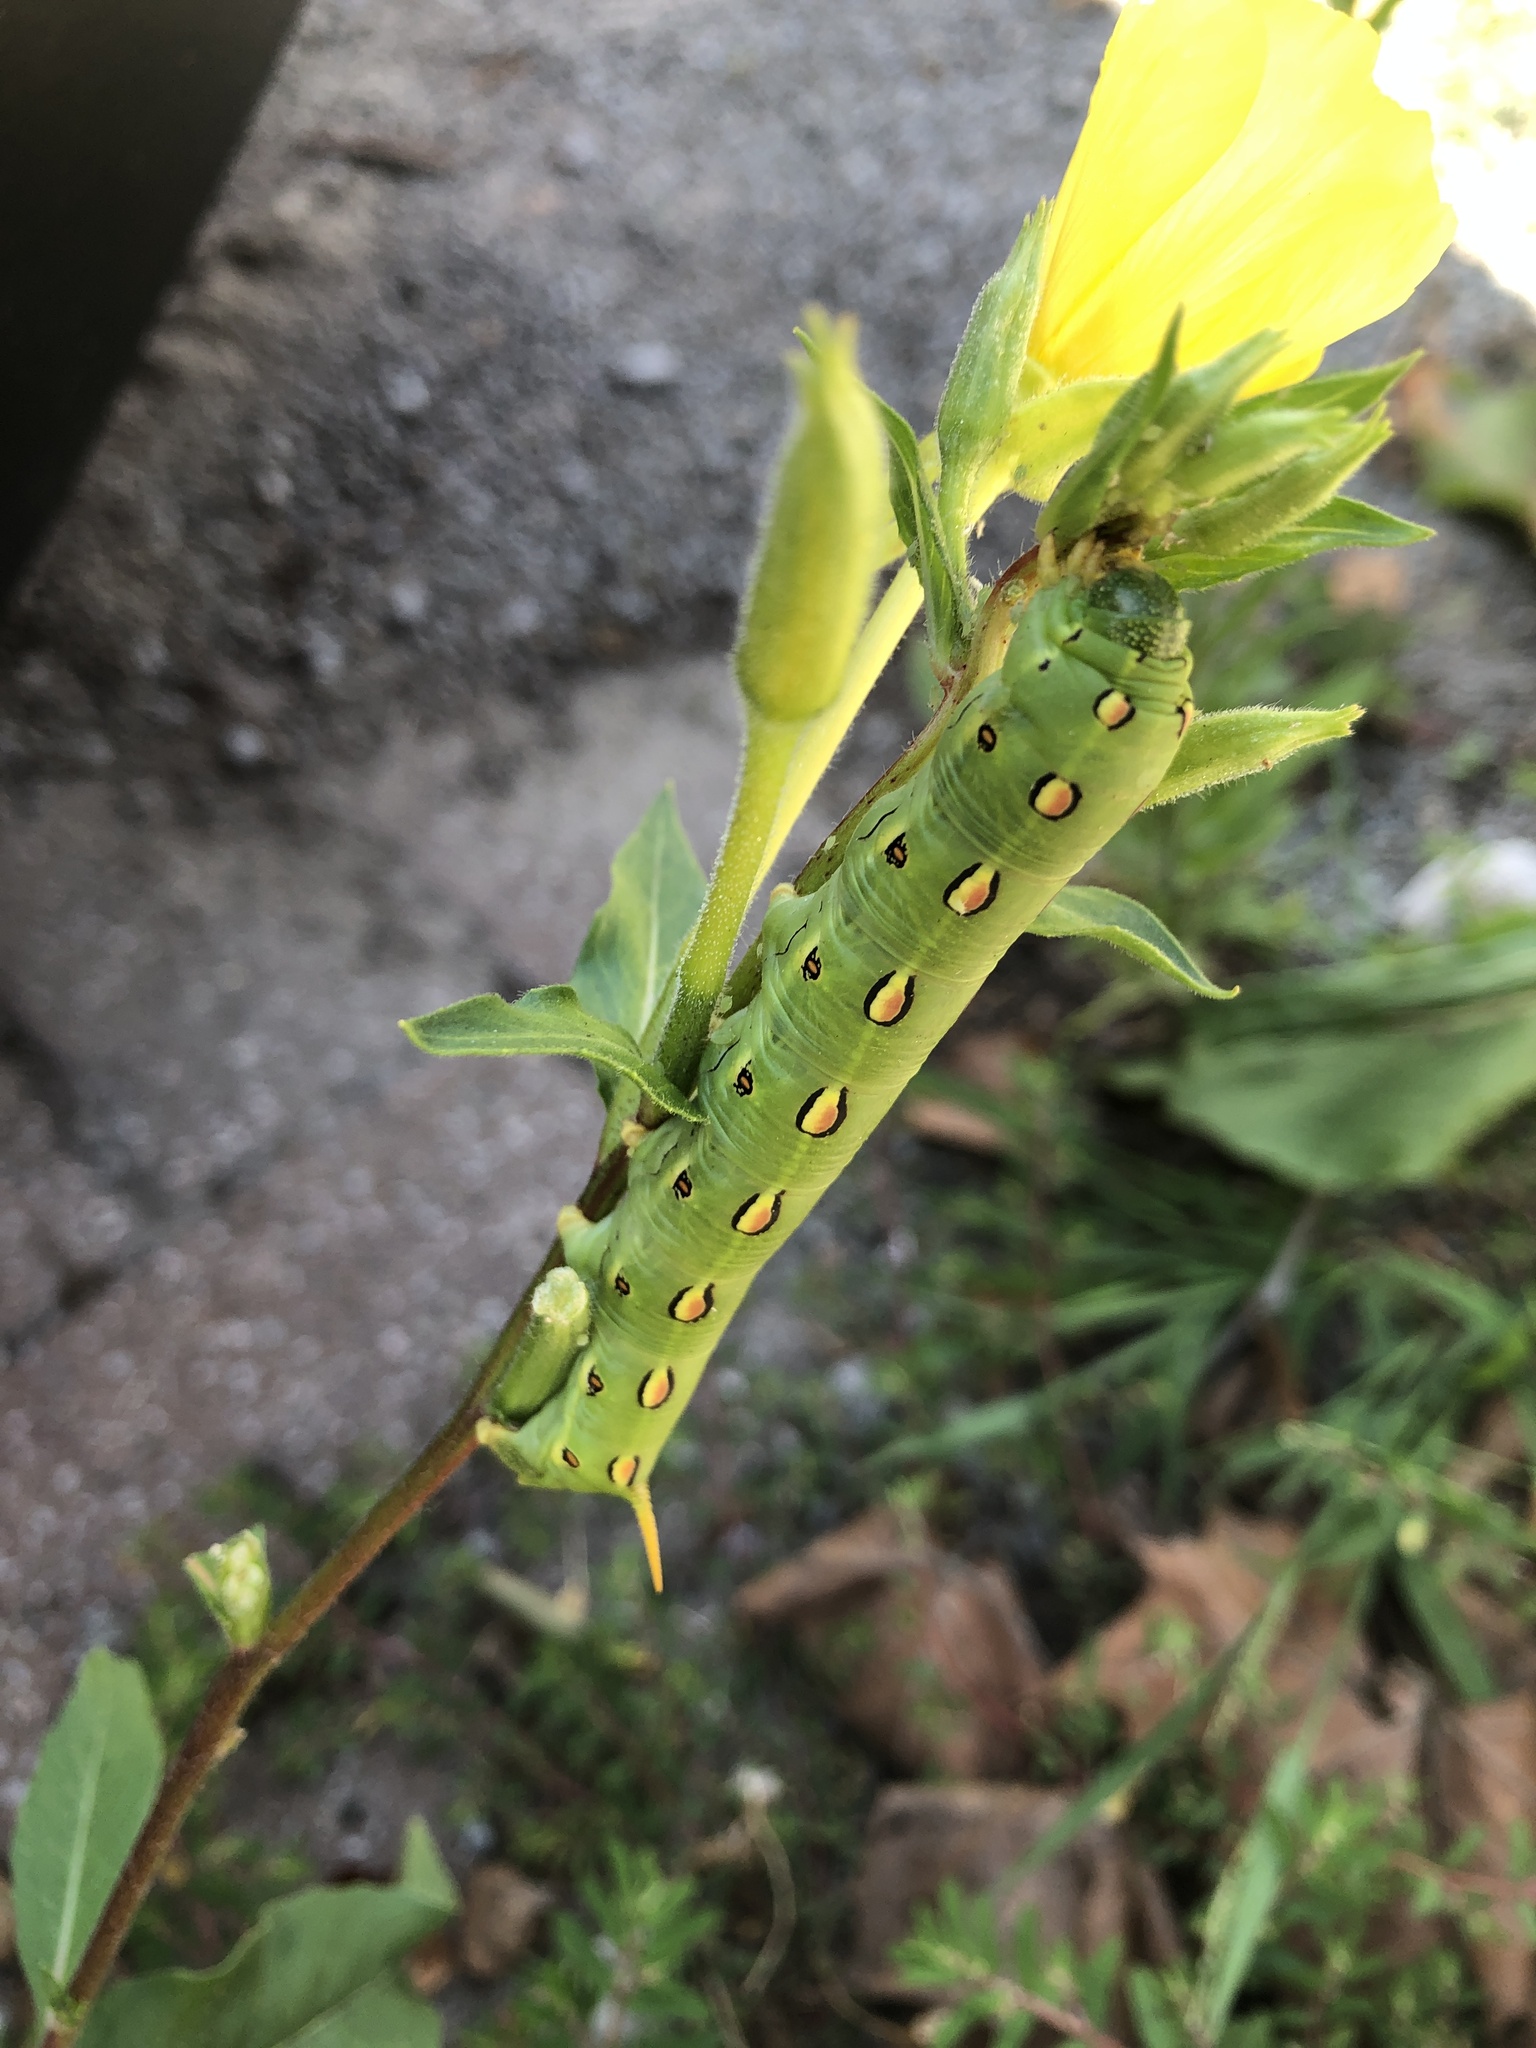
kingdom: Animalia
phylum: Arthropoda
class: Insecta
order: Lepidoptera
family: Sphingidae
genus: Hyles
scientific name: Hyles lineata
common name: White-lined sphinx
